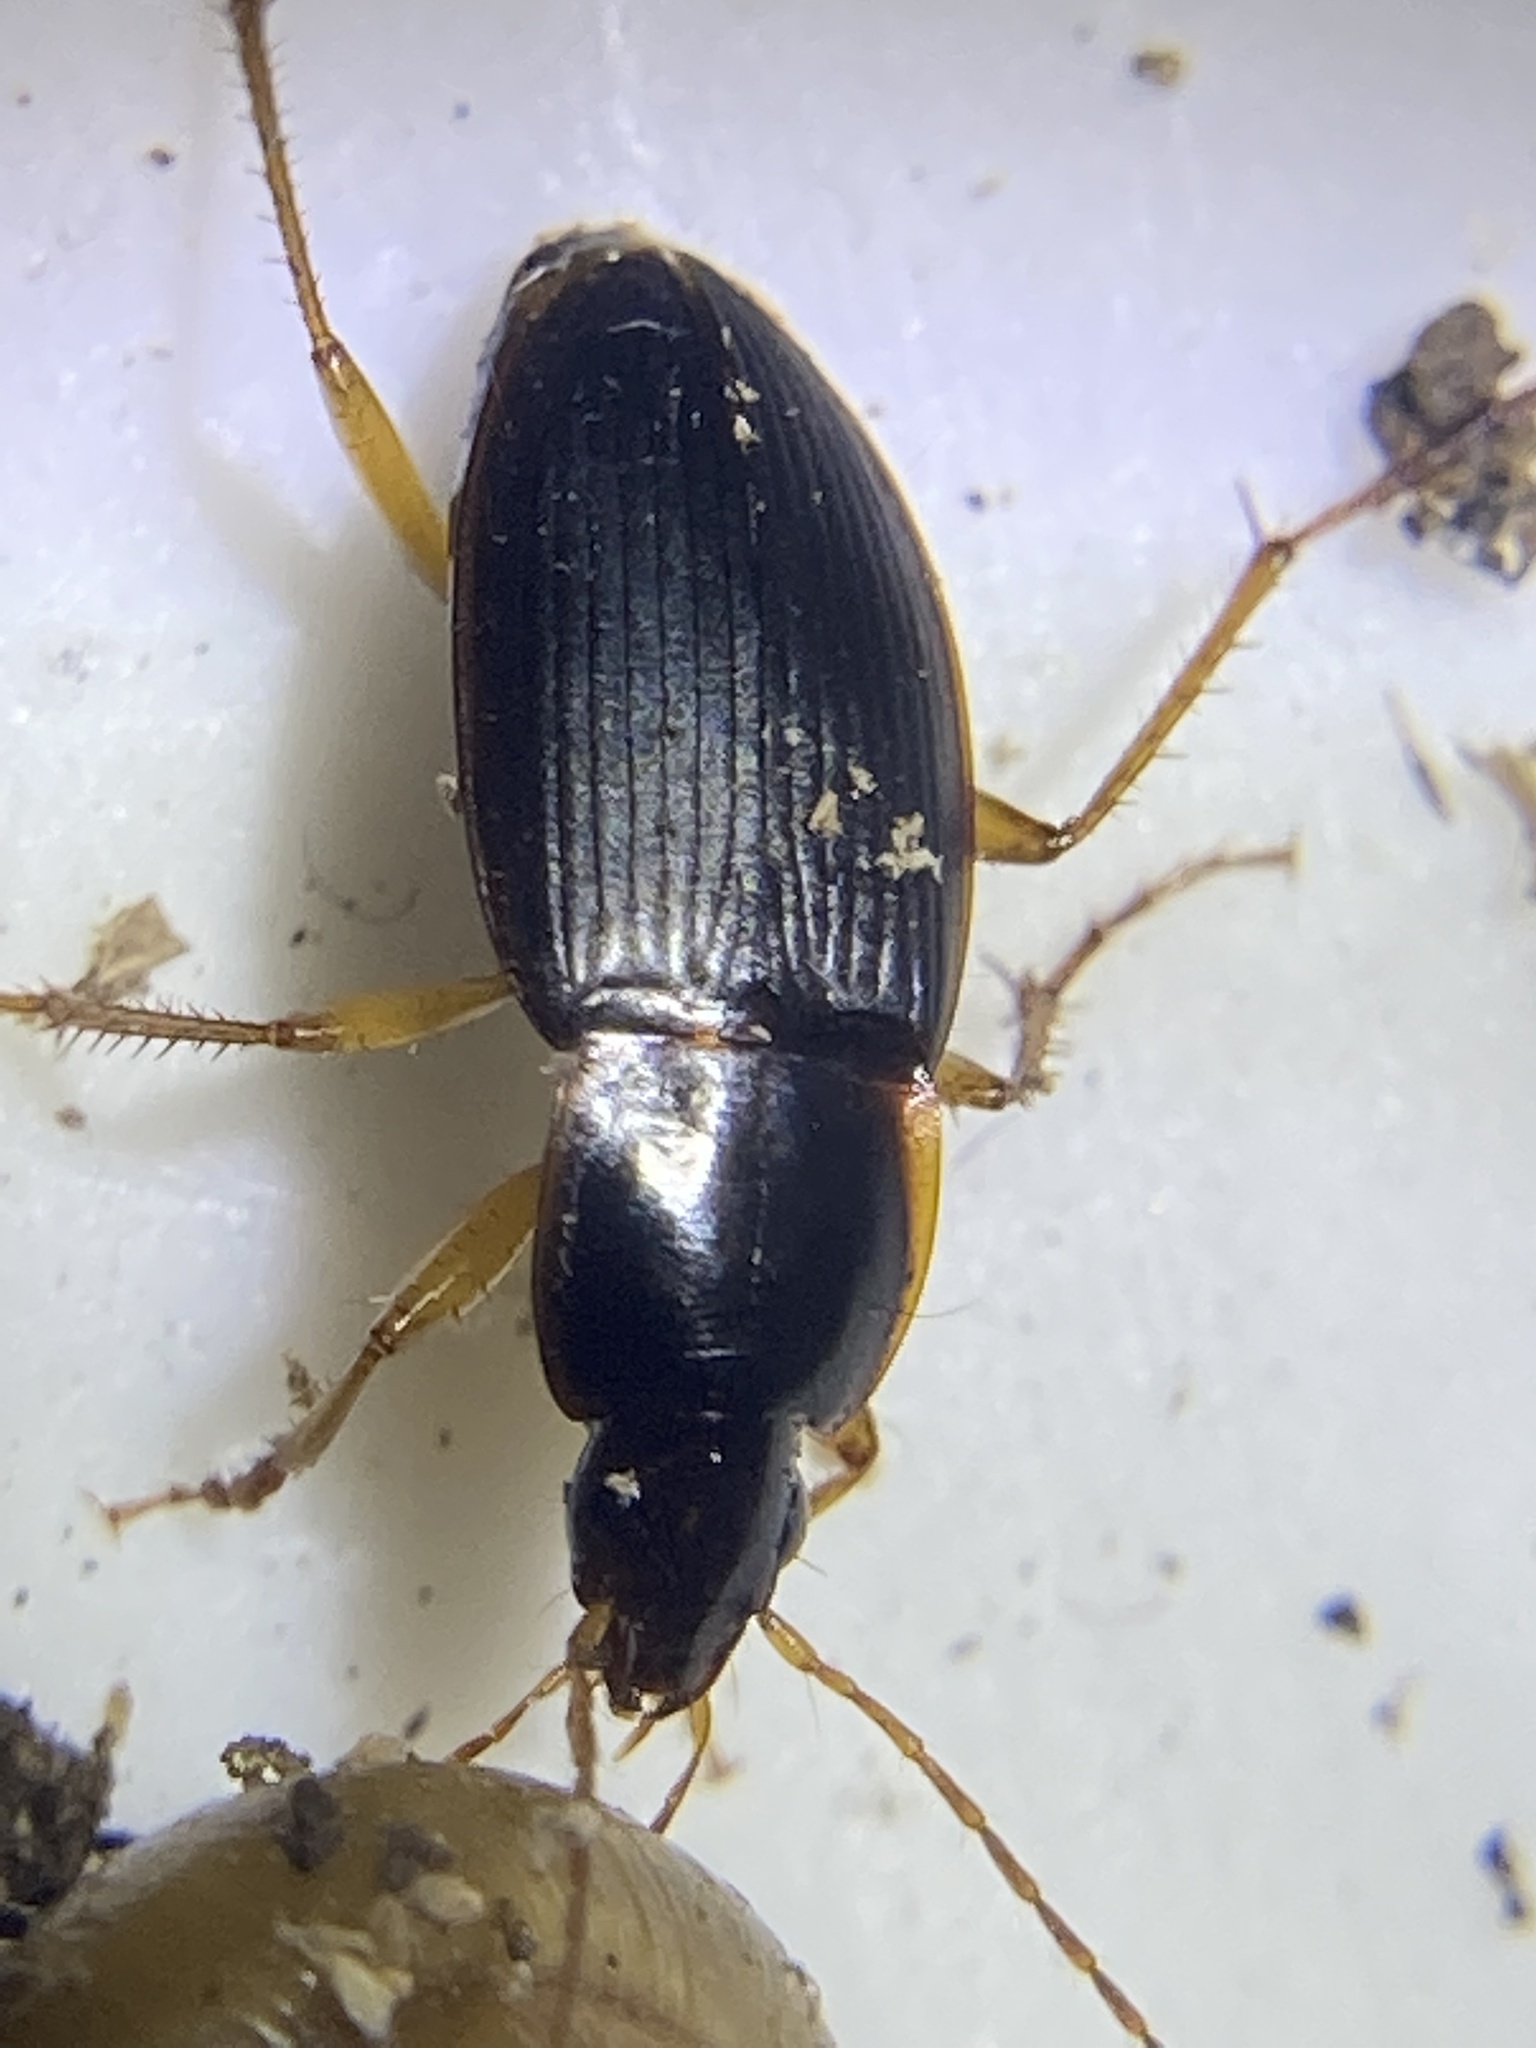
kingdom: Animalia
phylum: Arthropoda
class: Insecta
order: Coleoptera
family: Carabidae
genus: Calathus
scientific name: Calathus opaculus
